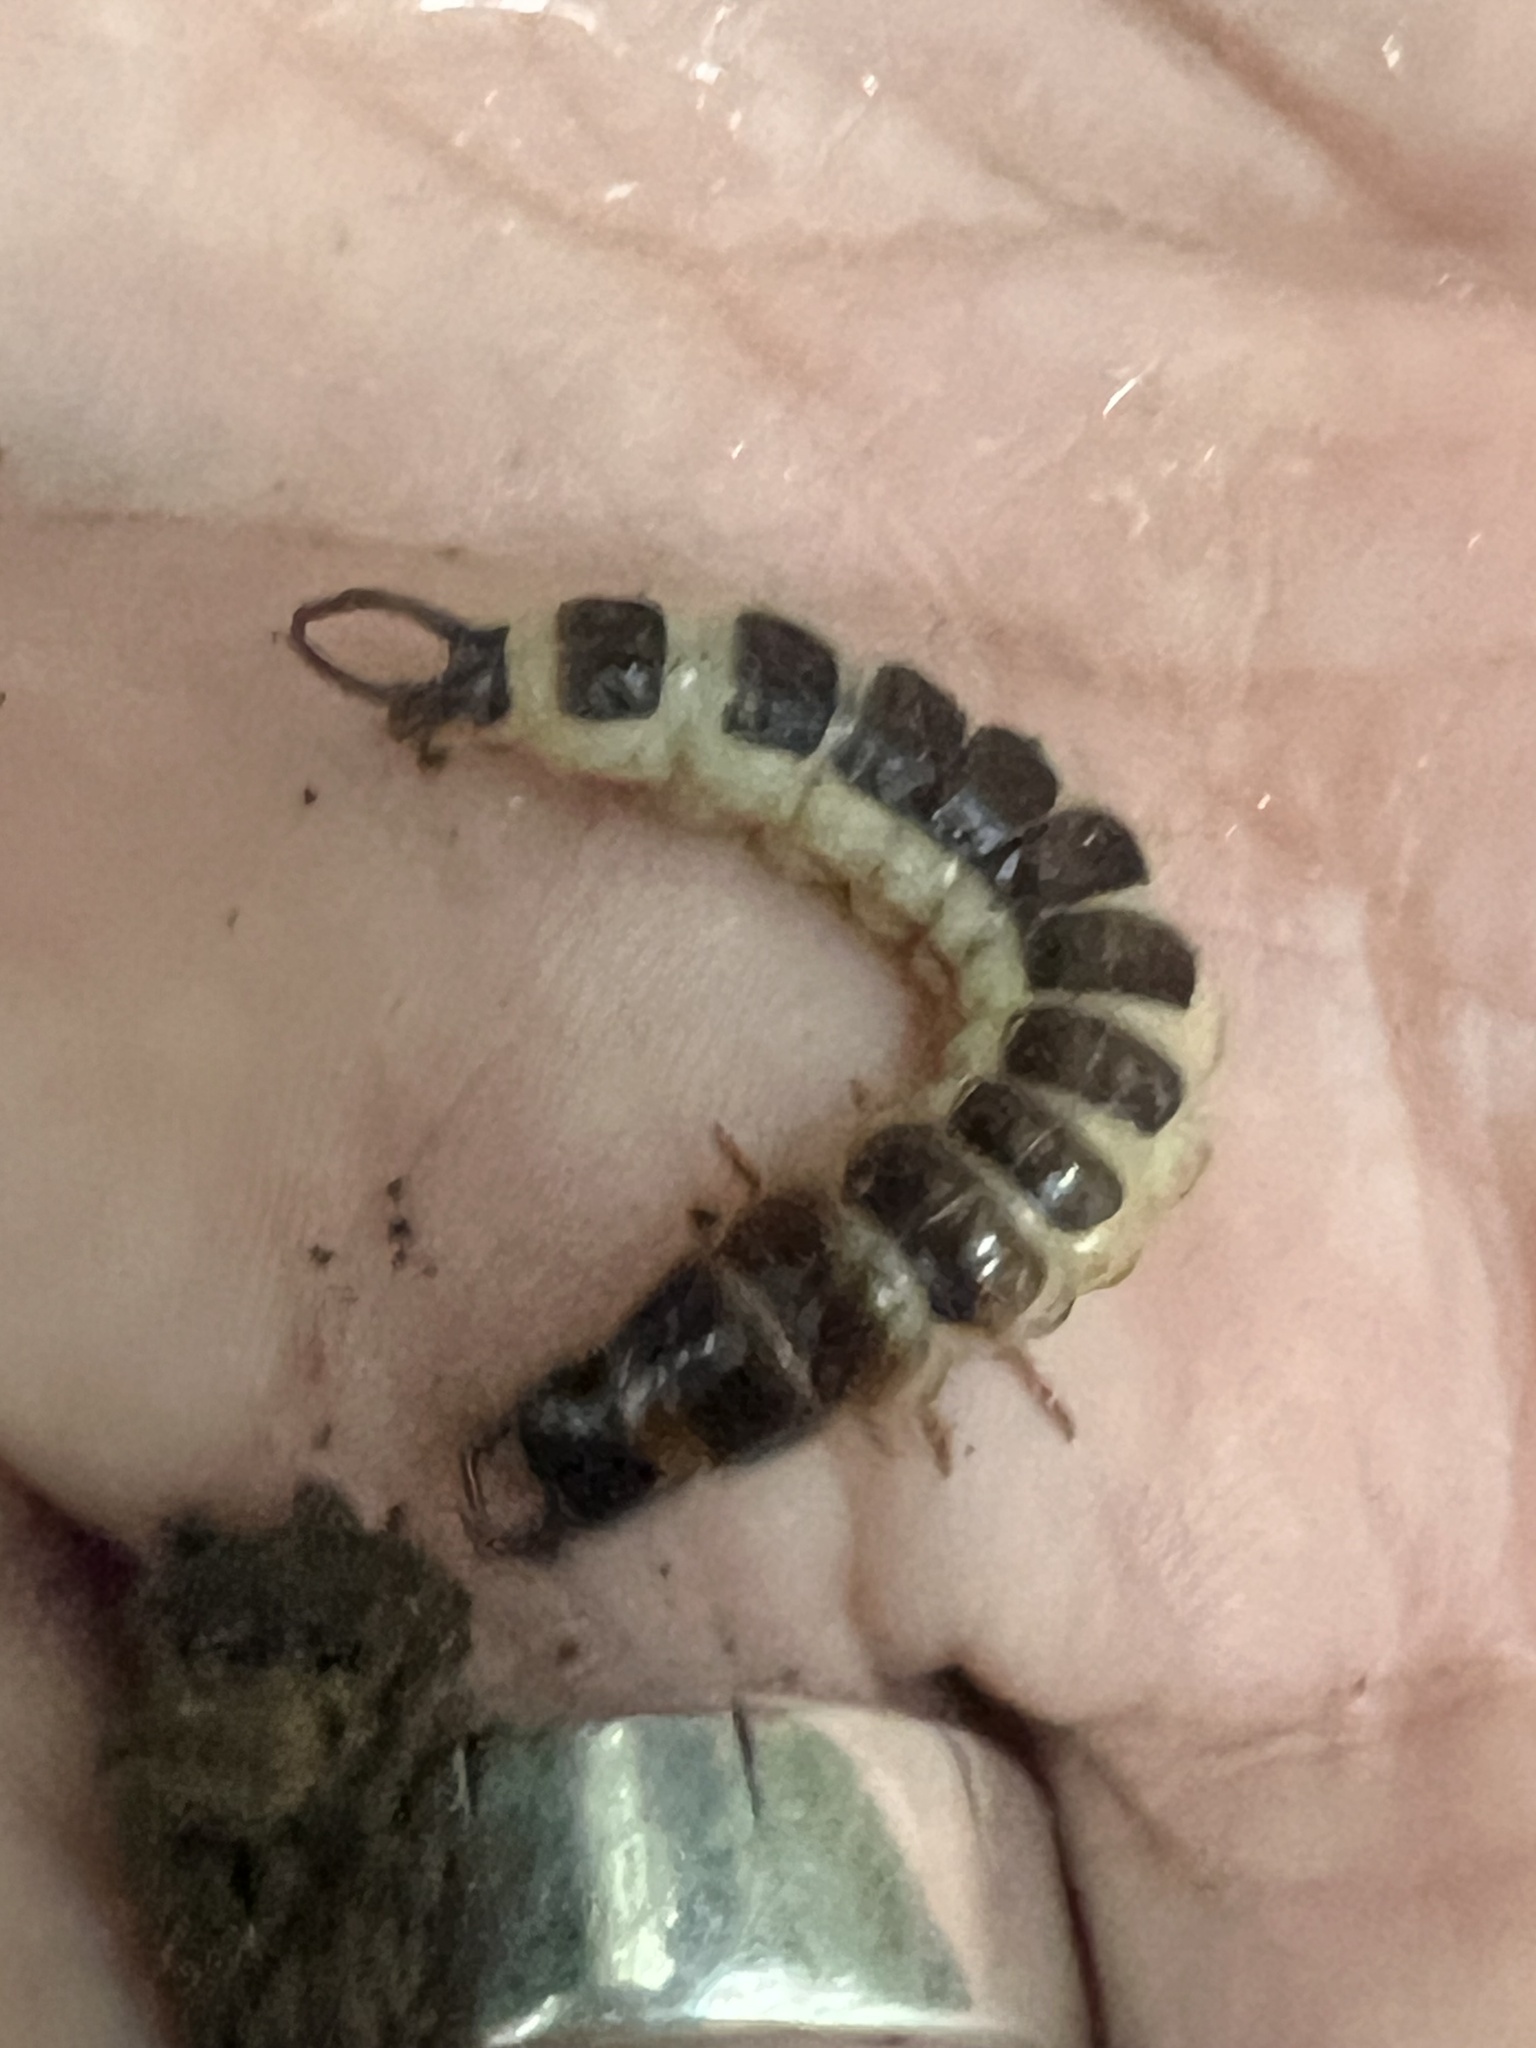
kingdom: Animalia
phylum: Arthropoda
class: Insecta
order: Coleoptera
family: Carabidae
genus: Megadromus
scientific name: Megadromus antarcticus
